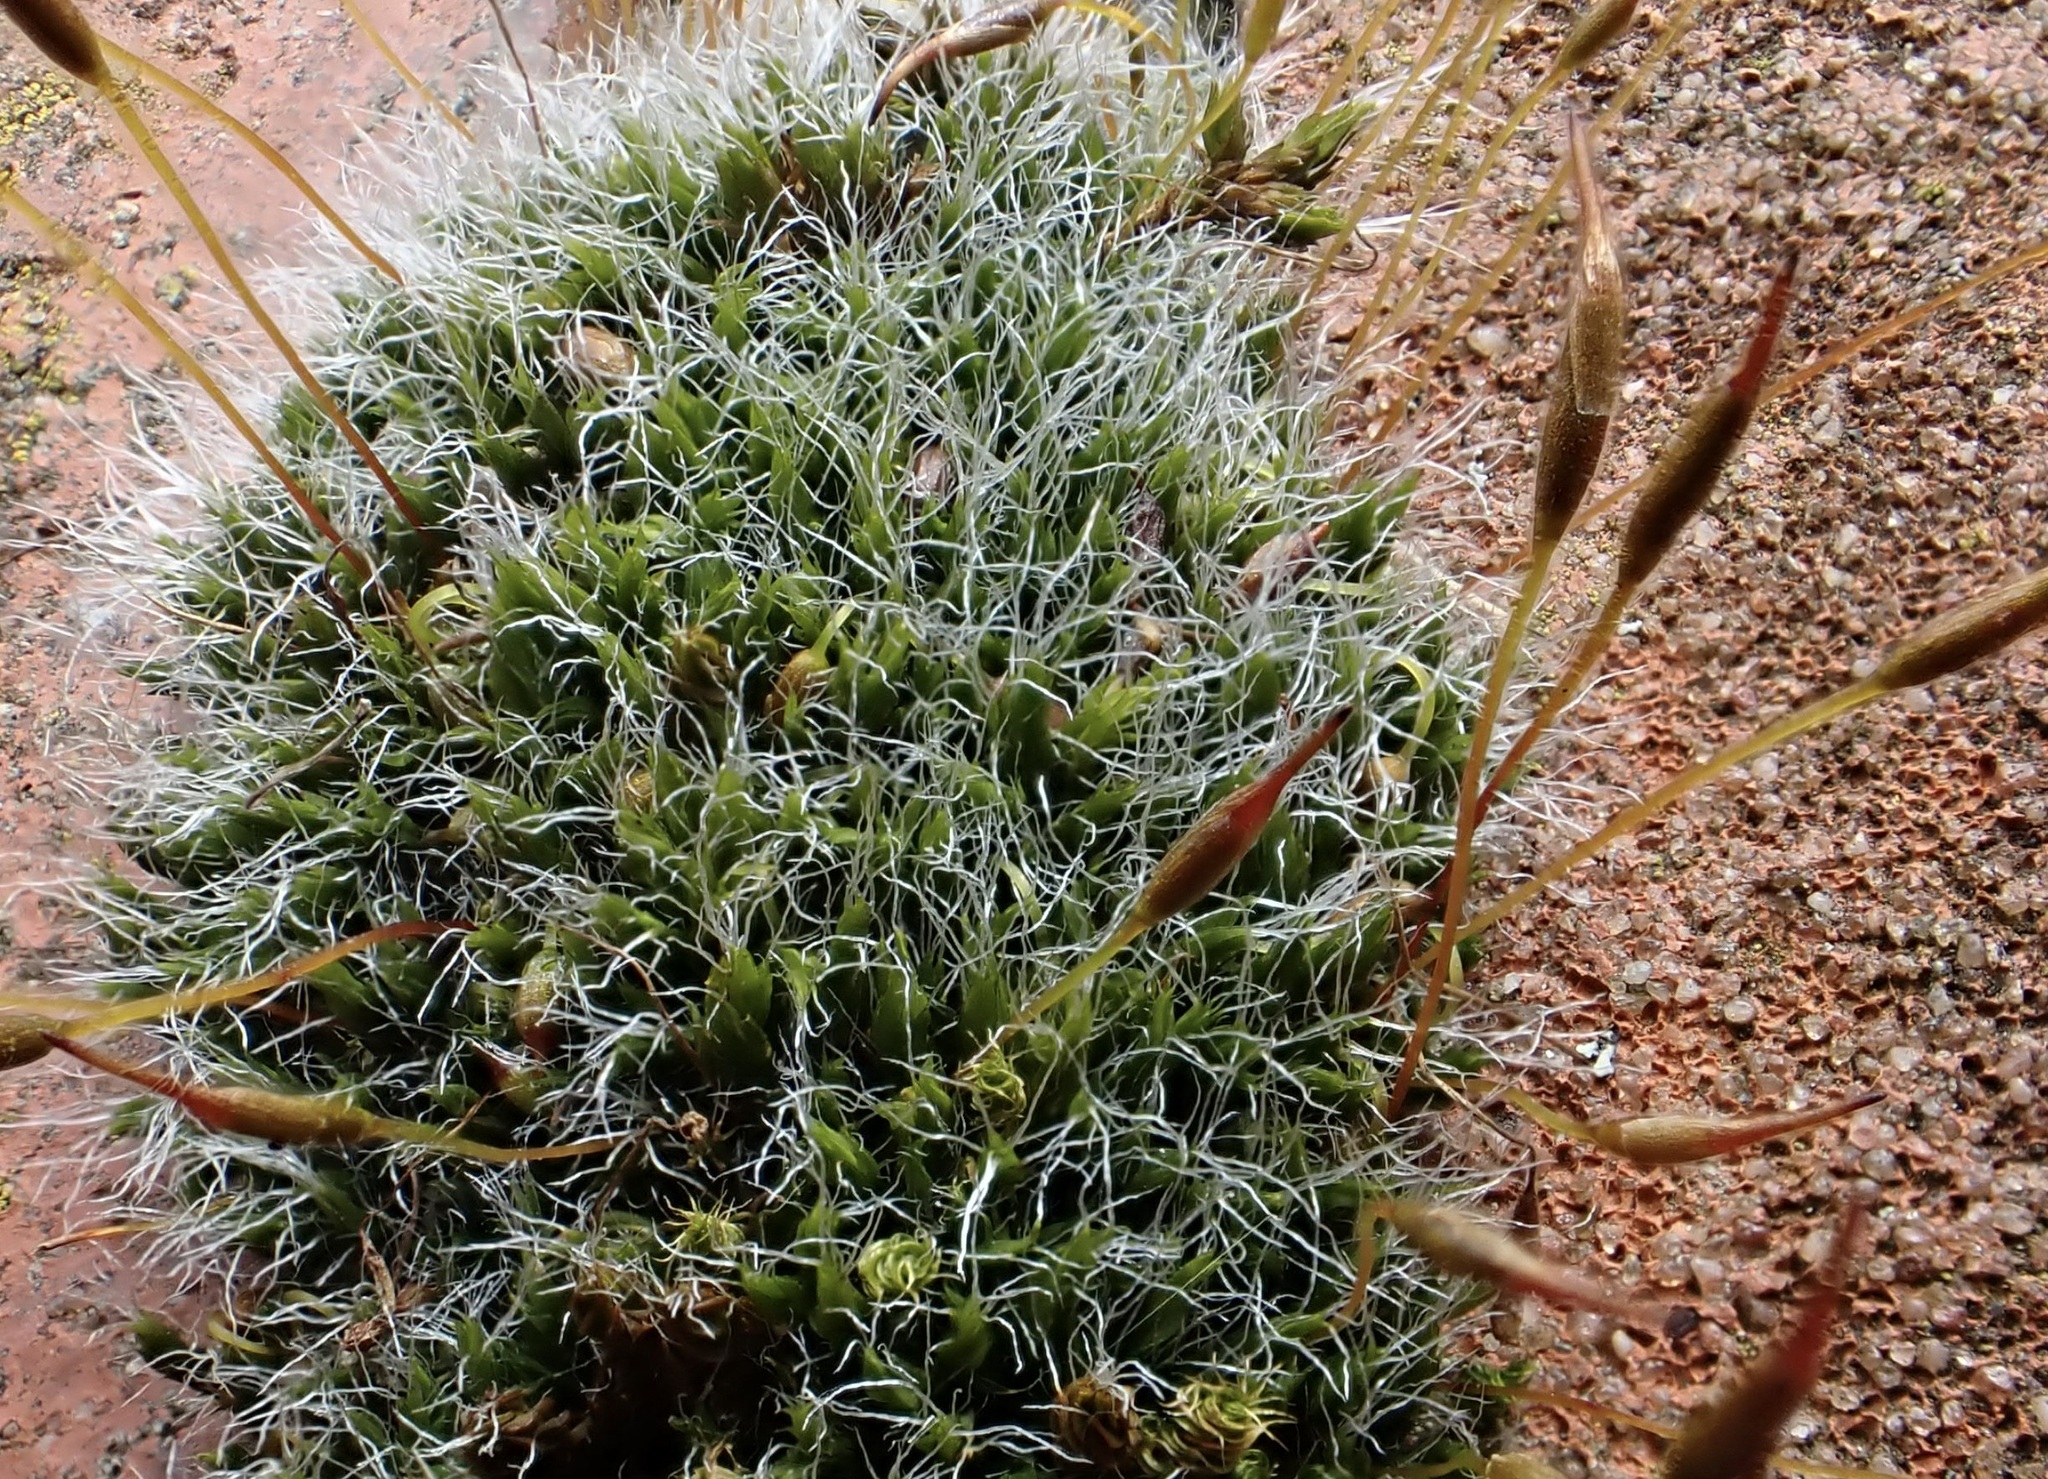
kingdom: Plantae
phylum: Bryophyta
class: Bryopsida
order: Grimmiales
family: Grimmiaceae
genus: Grimmia
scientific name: Grimmia pulvinata
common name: Grey-cushioned grimmia
